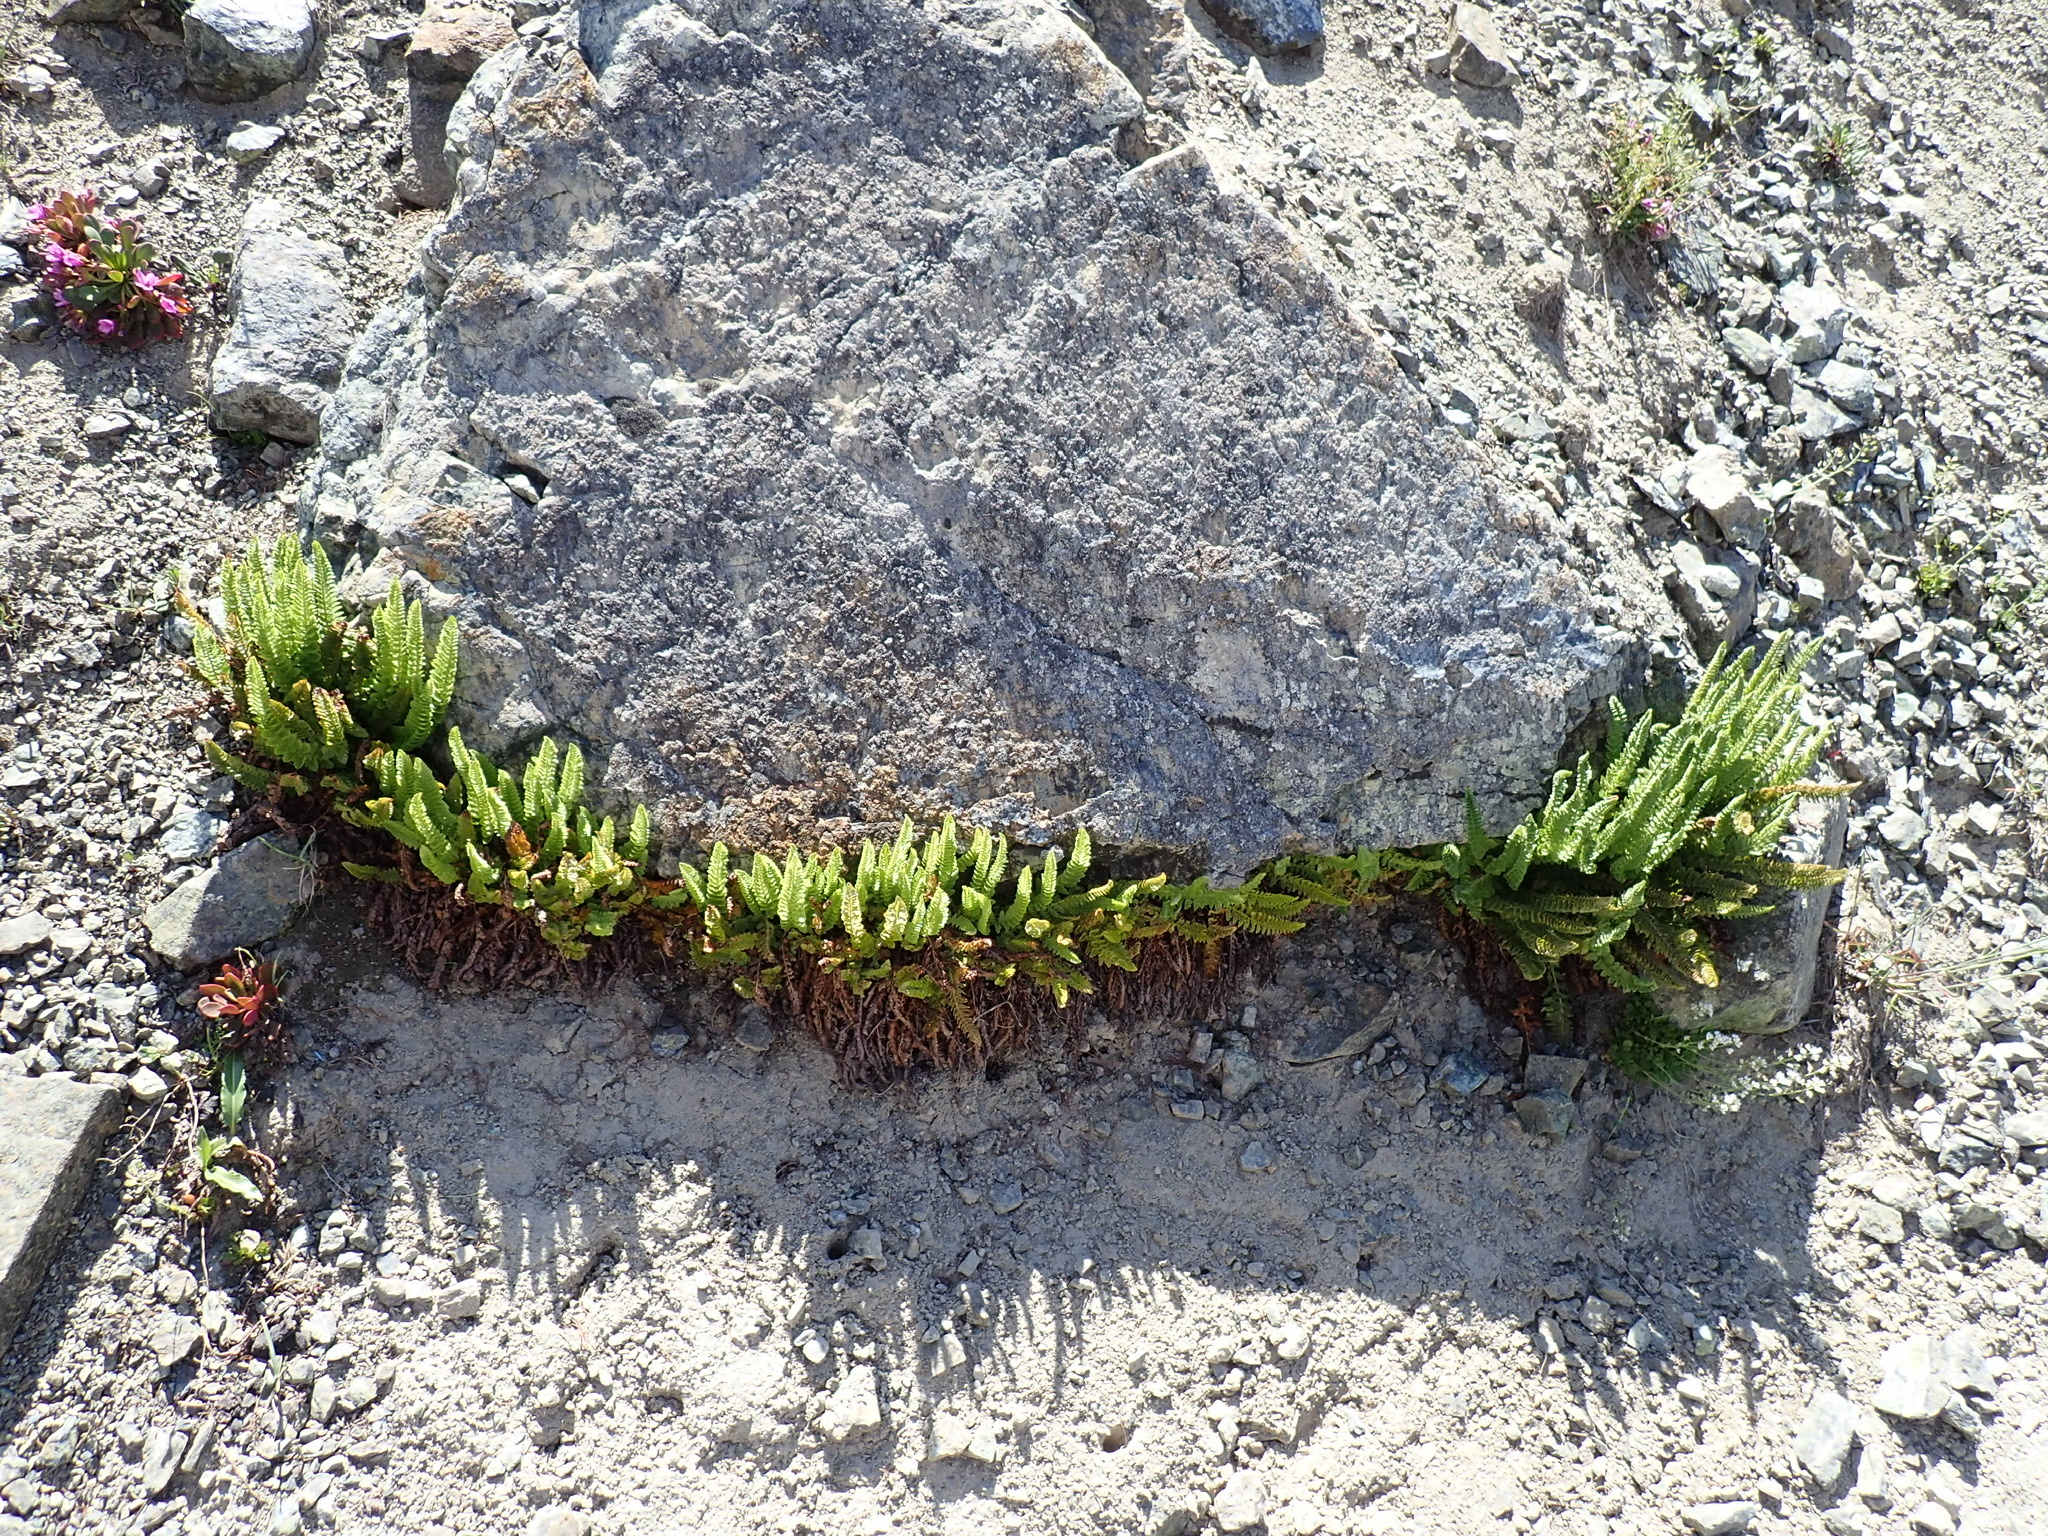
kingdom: Plantae
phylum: Tracheophyta
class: Polypodiopsida
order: Polypodiales
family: Dryopteridaceae
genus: Polystichum
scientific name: Polystichum lemmonii
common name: Lemmon's holly fern
